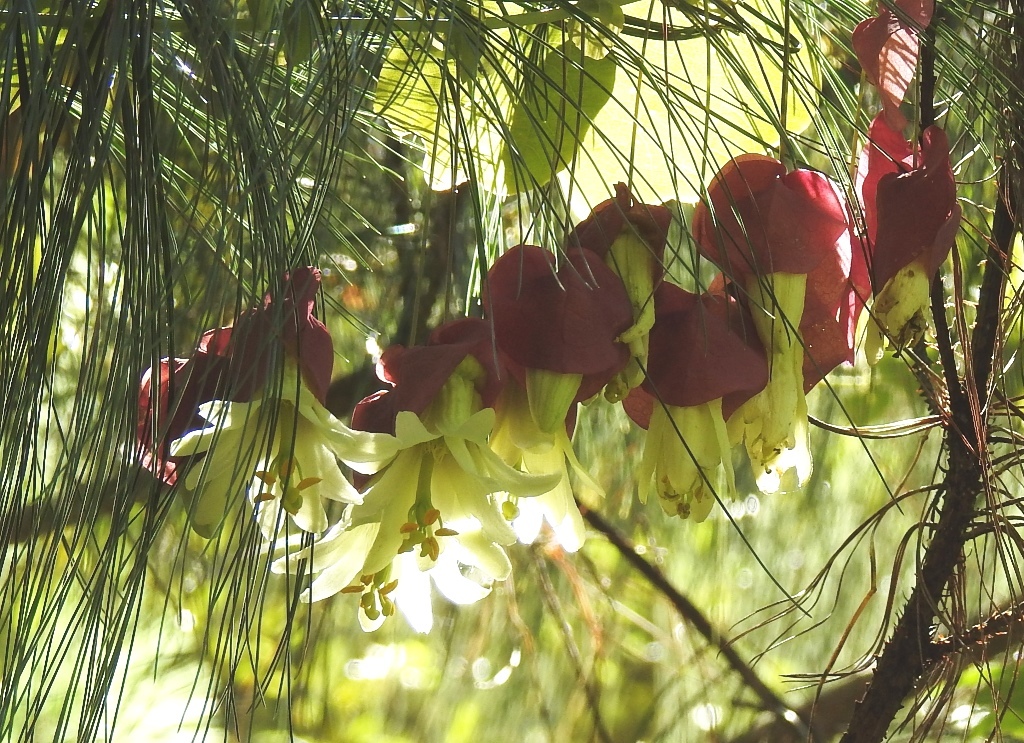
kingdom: Plantae
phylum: Tracheophyta
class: Magnoliopsida
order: Malpighiales
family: Passifloraceae
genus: Passiflora
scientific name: Passiflora membranacea
